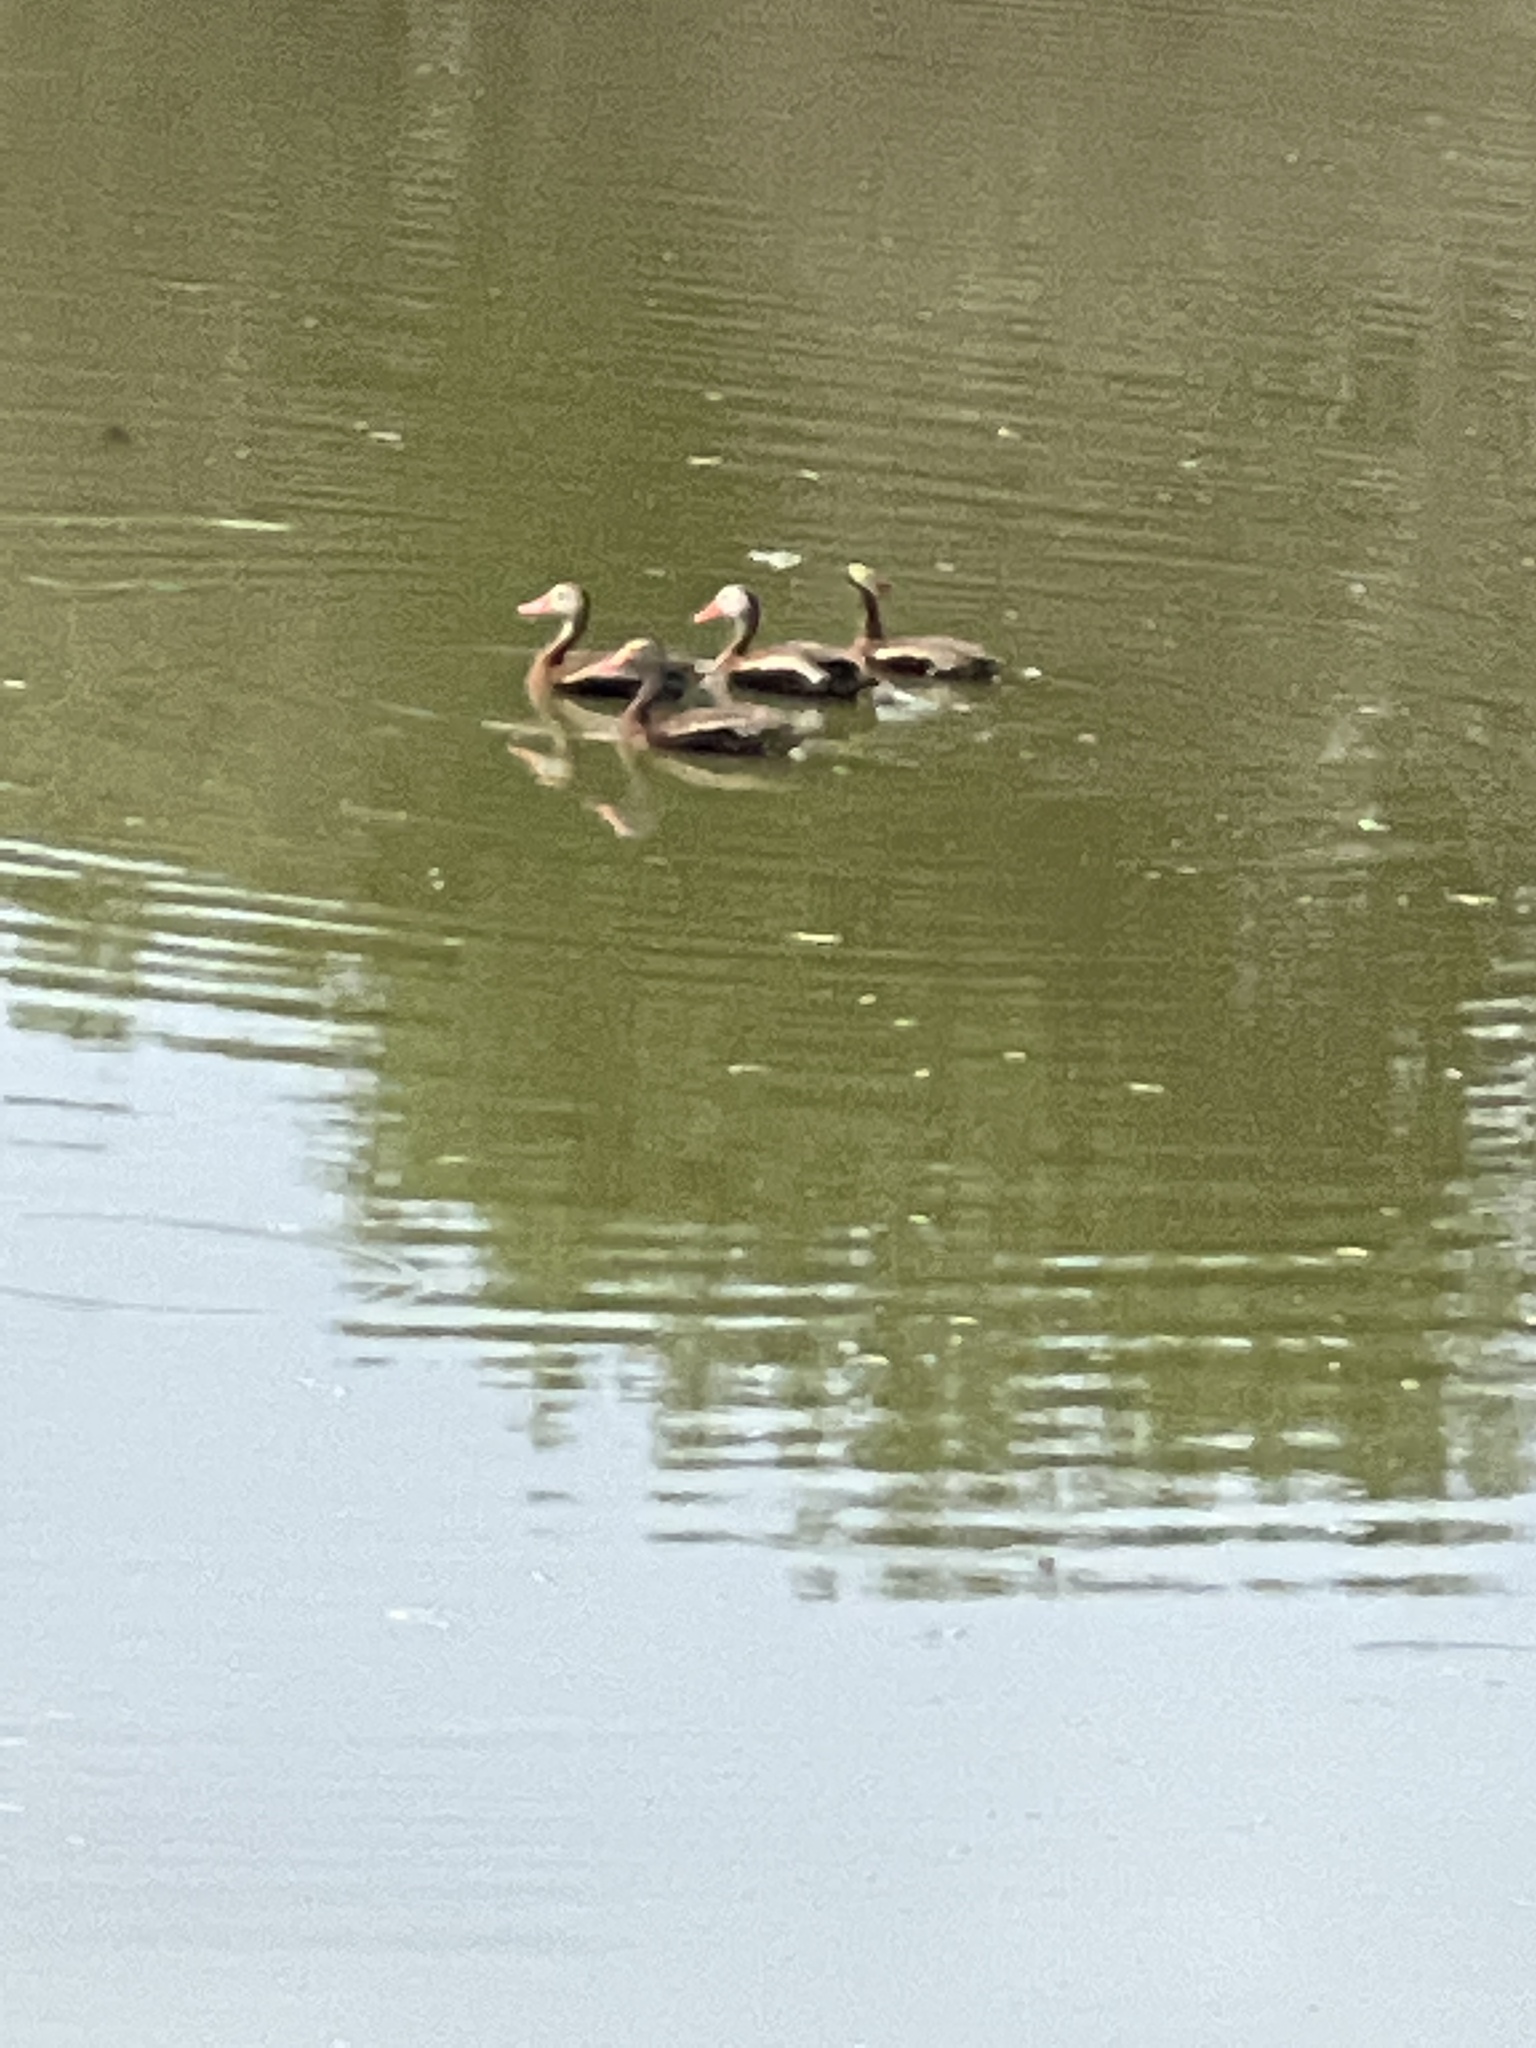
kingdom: Animalia
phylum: Chordata
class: Aves
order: Anseriformes
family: Anatidae
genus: Dendrocygna
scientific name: Dendrocygna autumnalis
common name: Black-bellied whistling duck
